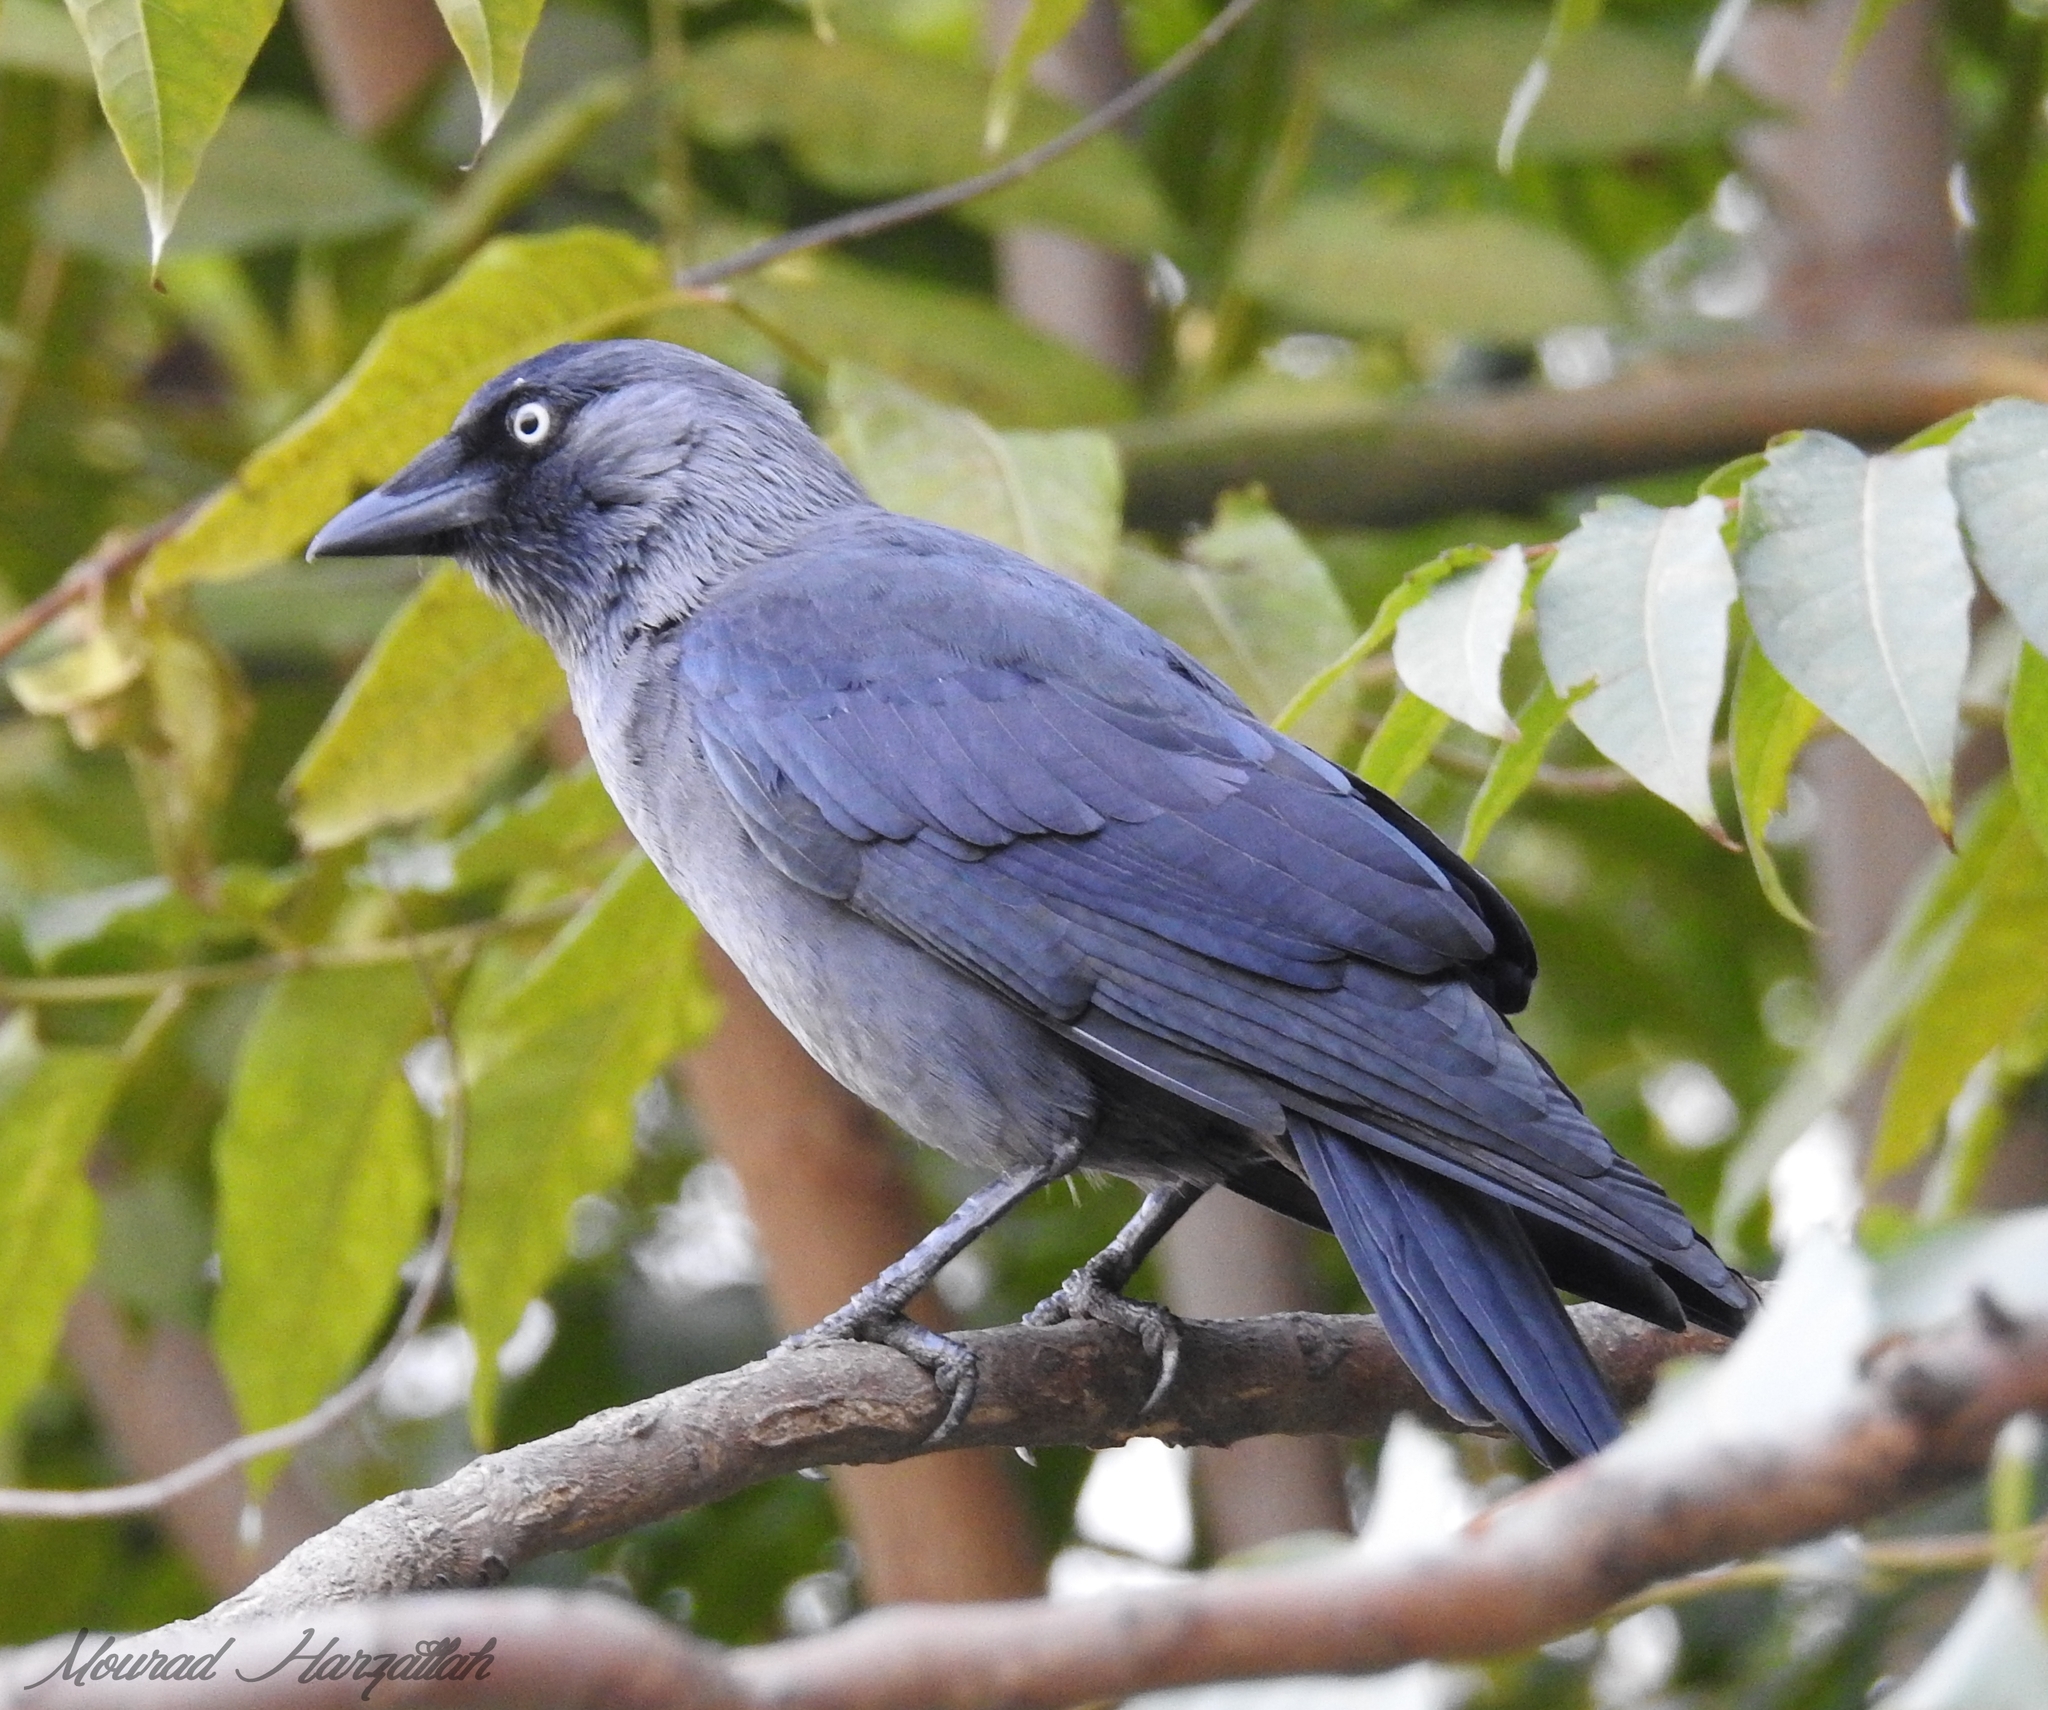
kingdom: Animalia
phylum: Chordata
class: Aves
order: Passeriformes
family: Corvidae
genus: Coloeus
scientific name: Coloeus monedula
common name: Western jackdaw
